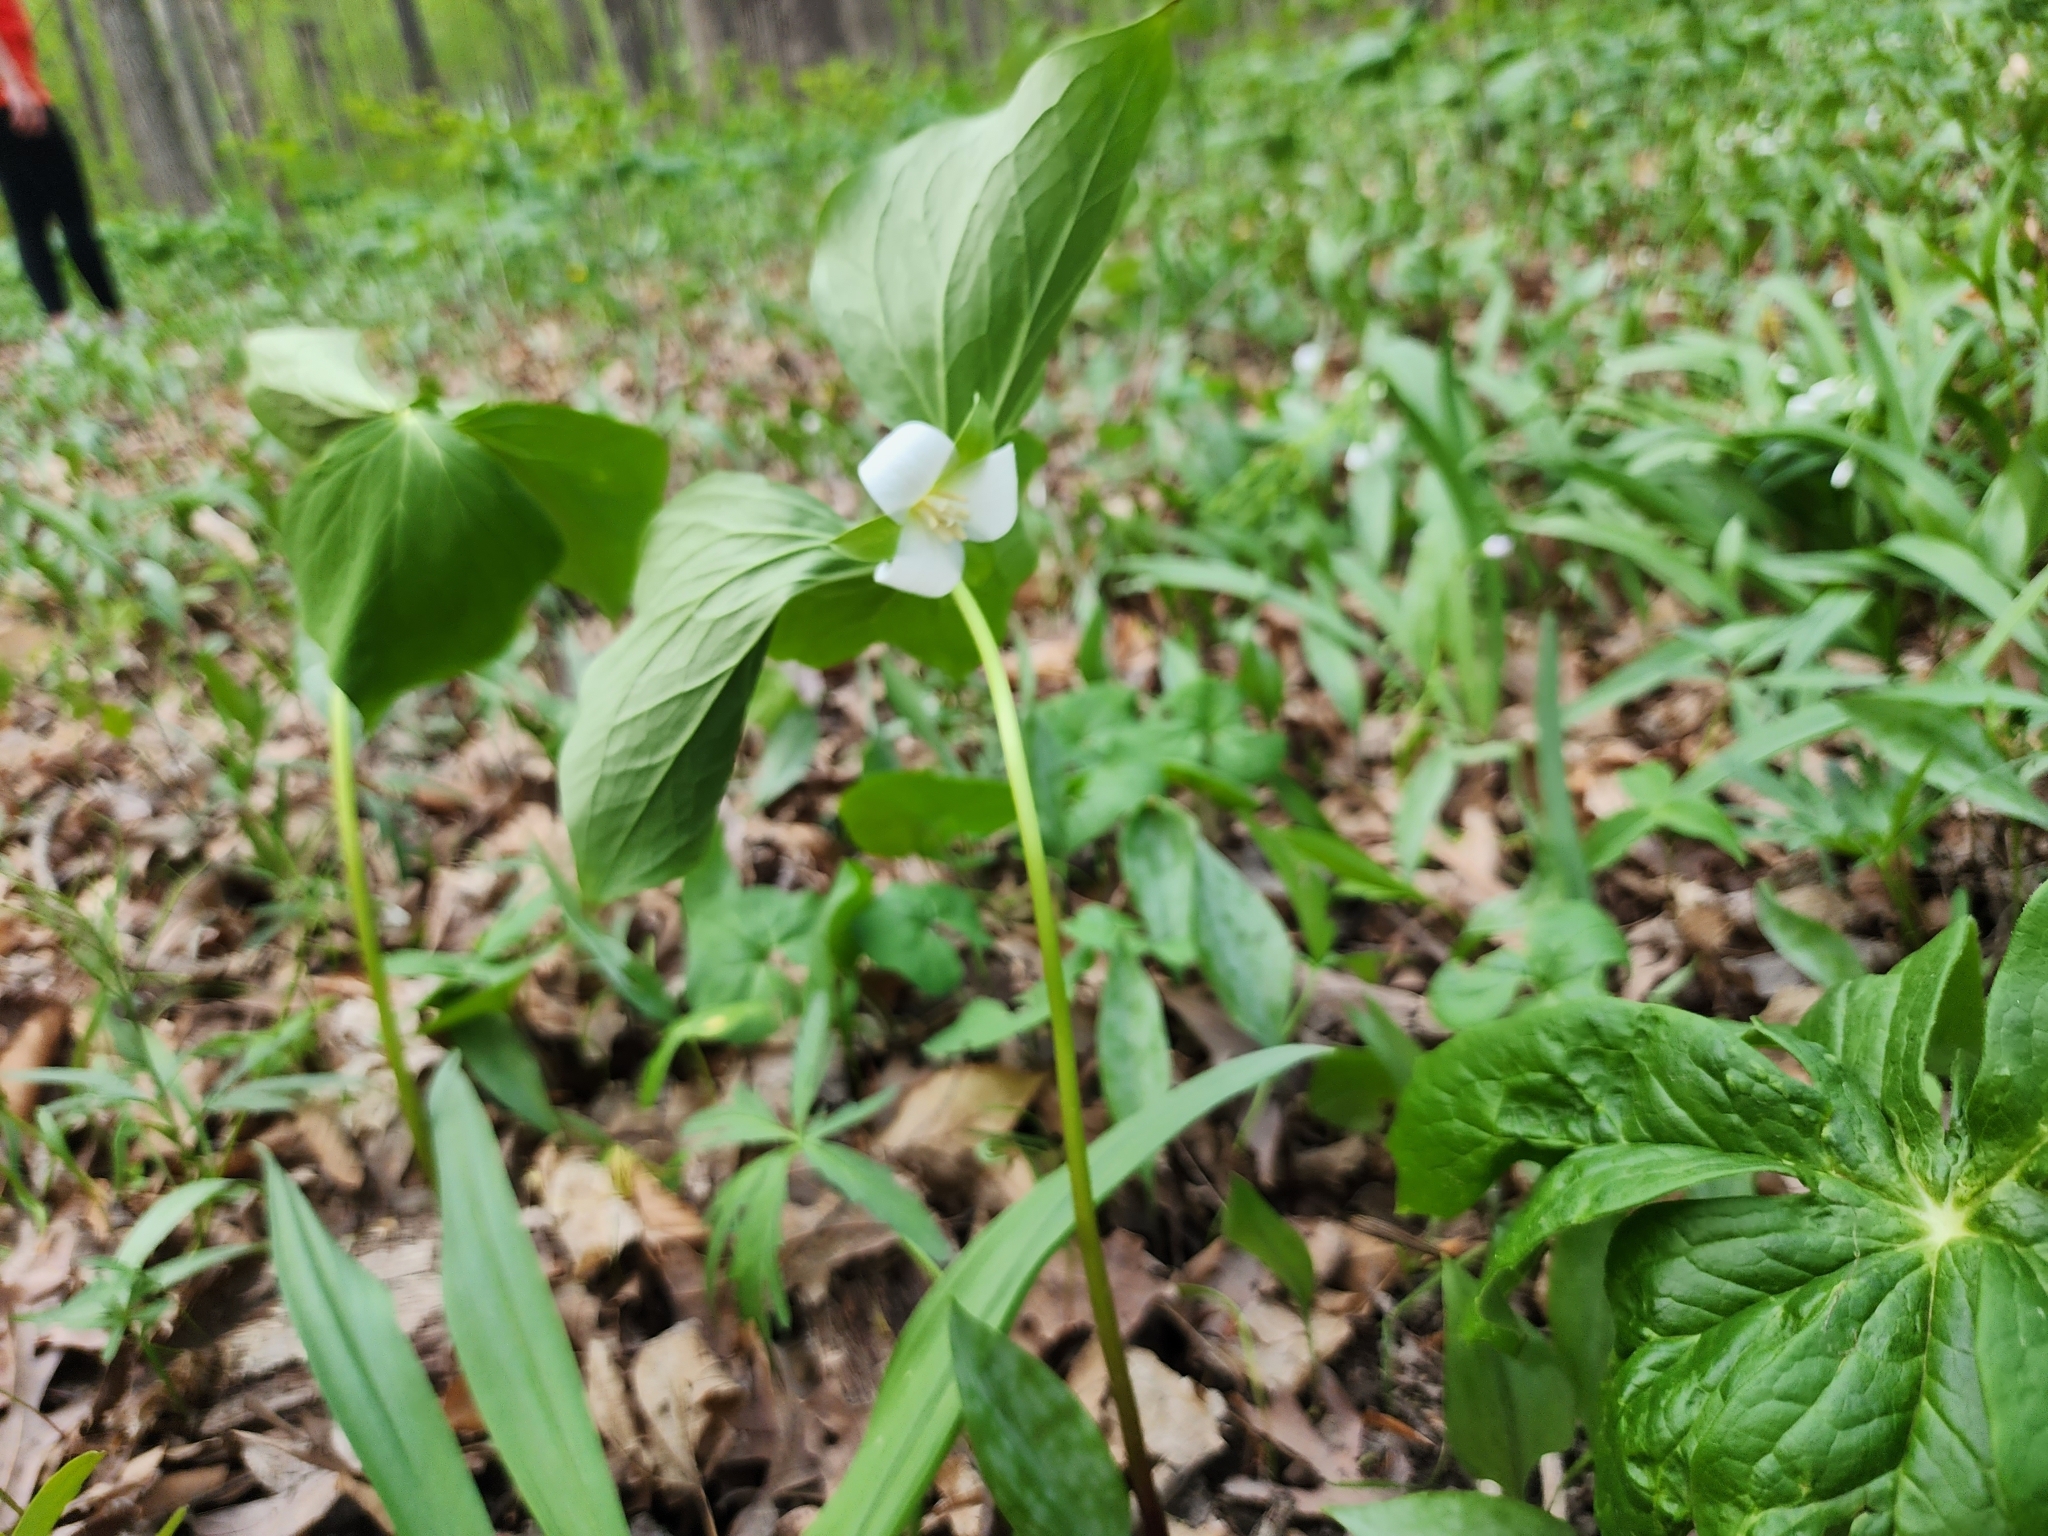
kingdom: Plantae
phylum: Tracheophyta
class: Liliopsida
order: Liliales
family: Melanthiaceae
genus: Trillium
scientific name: Trillium flexipes
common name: Drooping trillium
